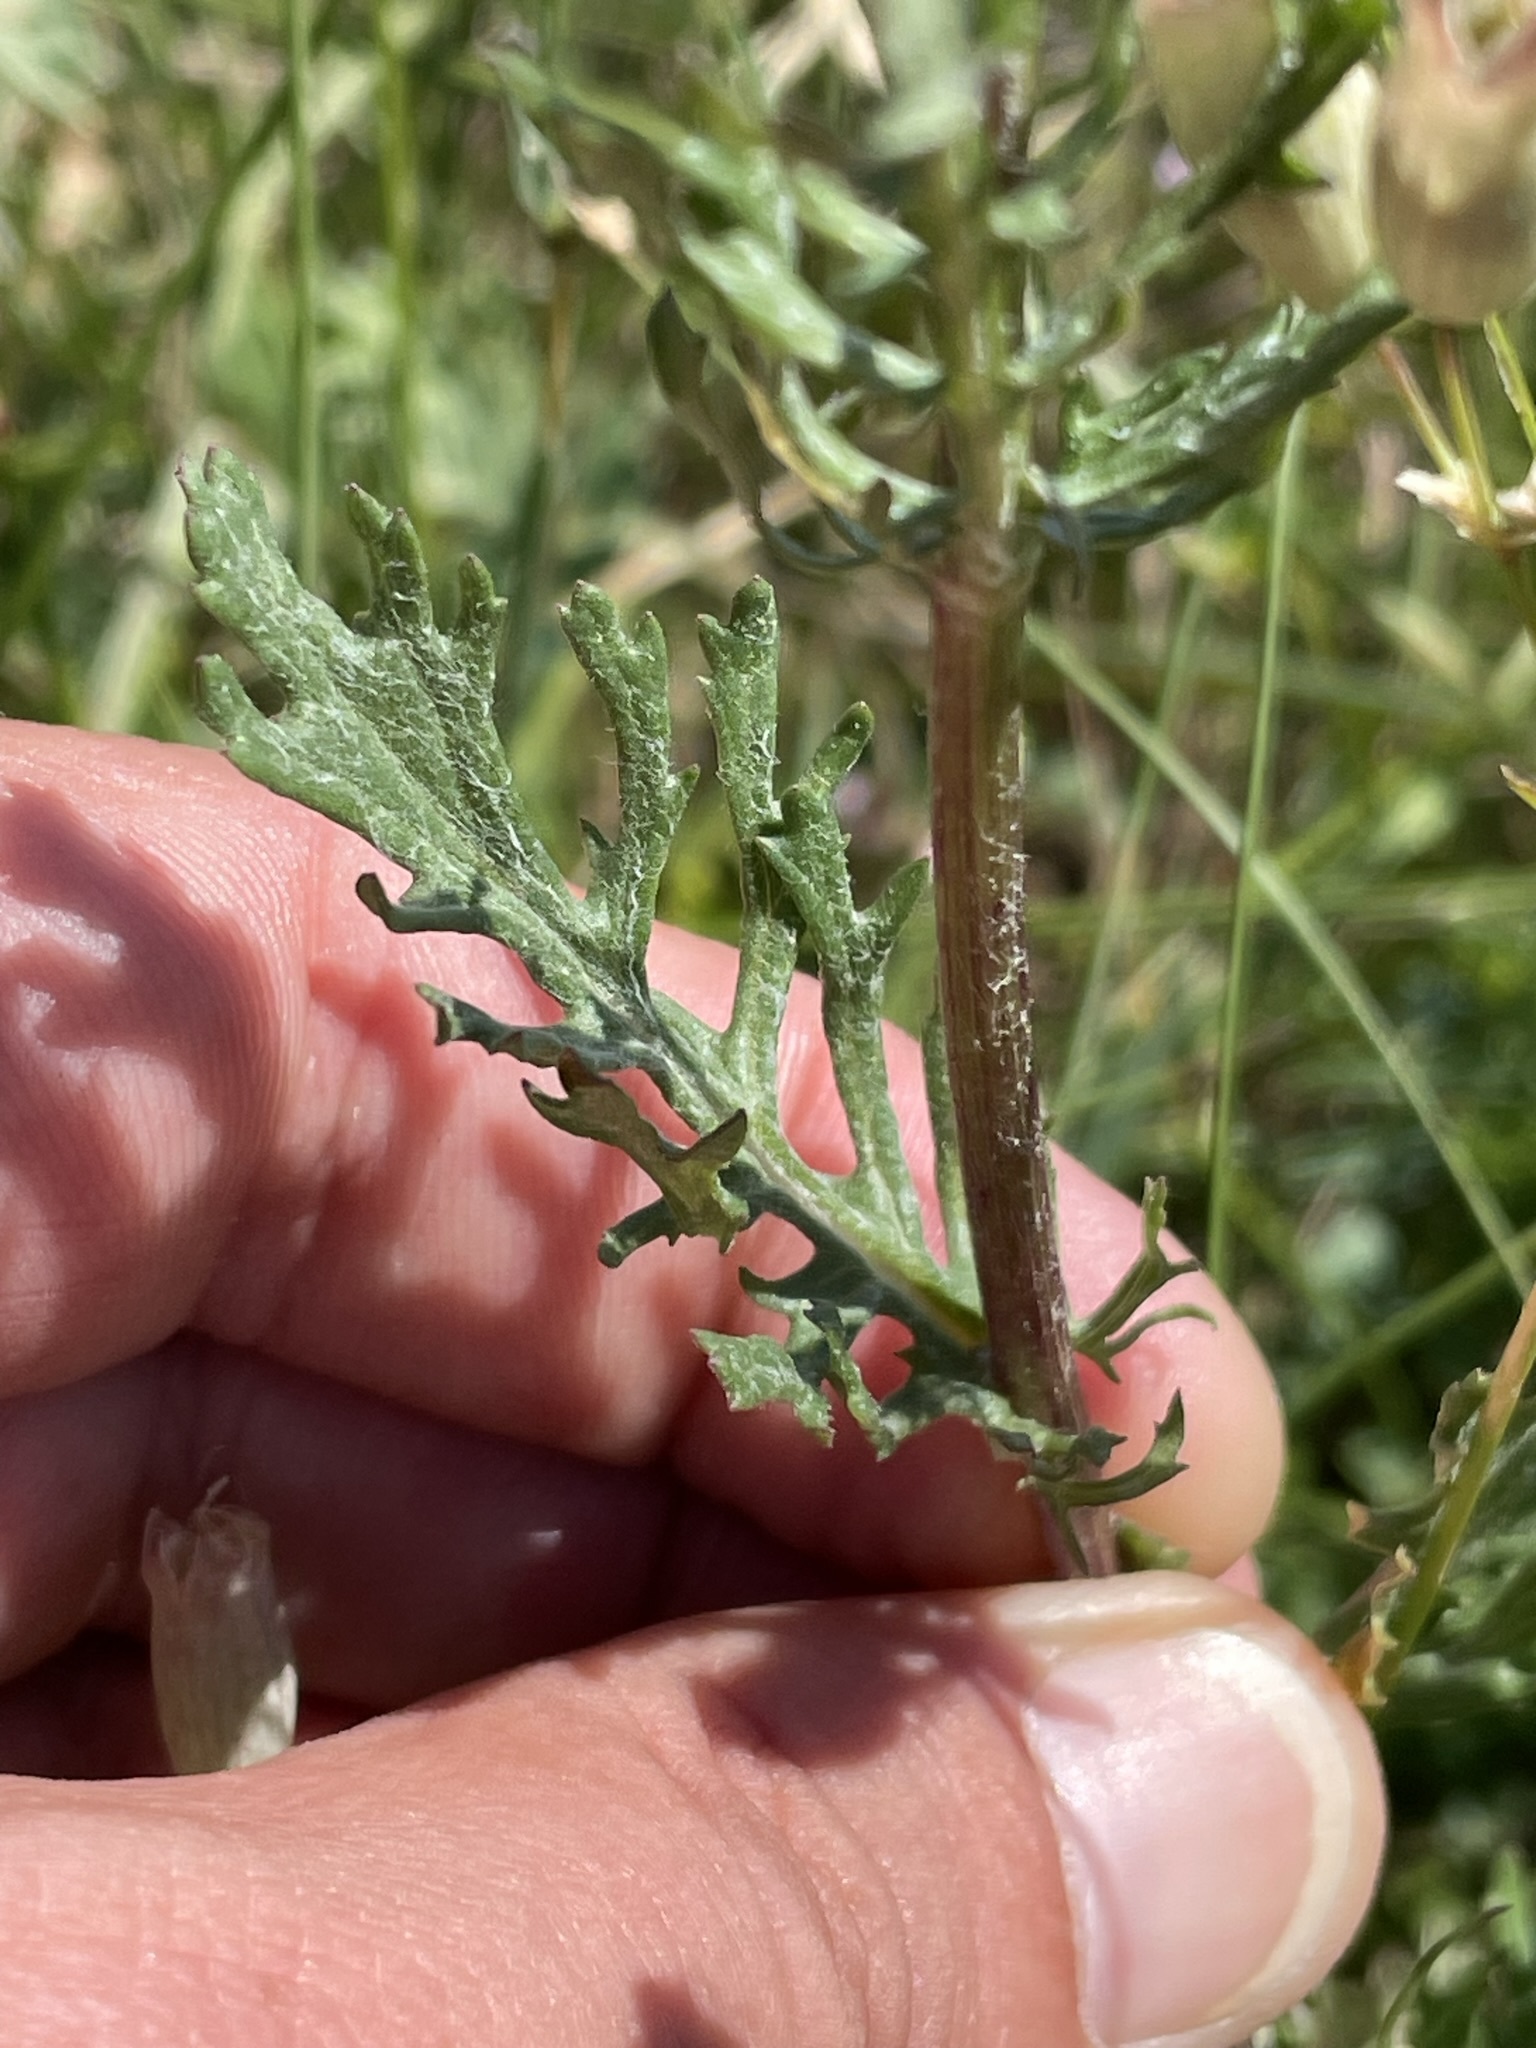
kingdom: Plantae
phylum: Tracheophyta
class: Magnoliopsida
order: Asterales
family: Asteraceae
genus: Jacobaea
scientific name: Jacobaea vulgaris
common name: Stinking willie
